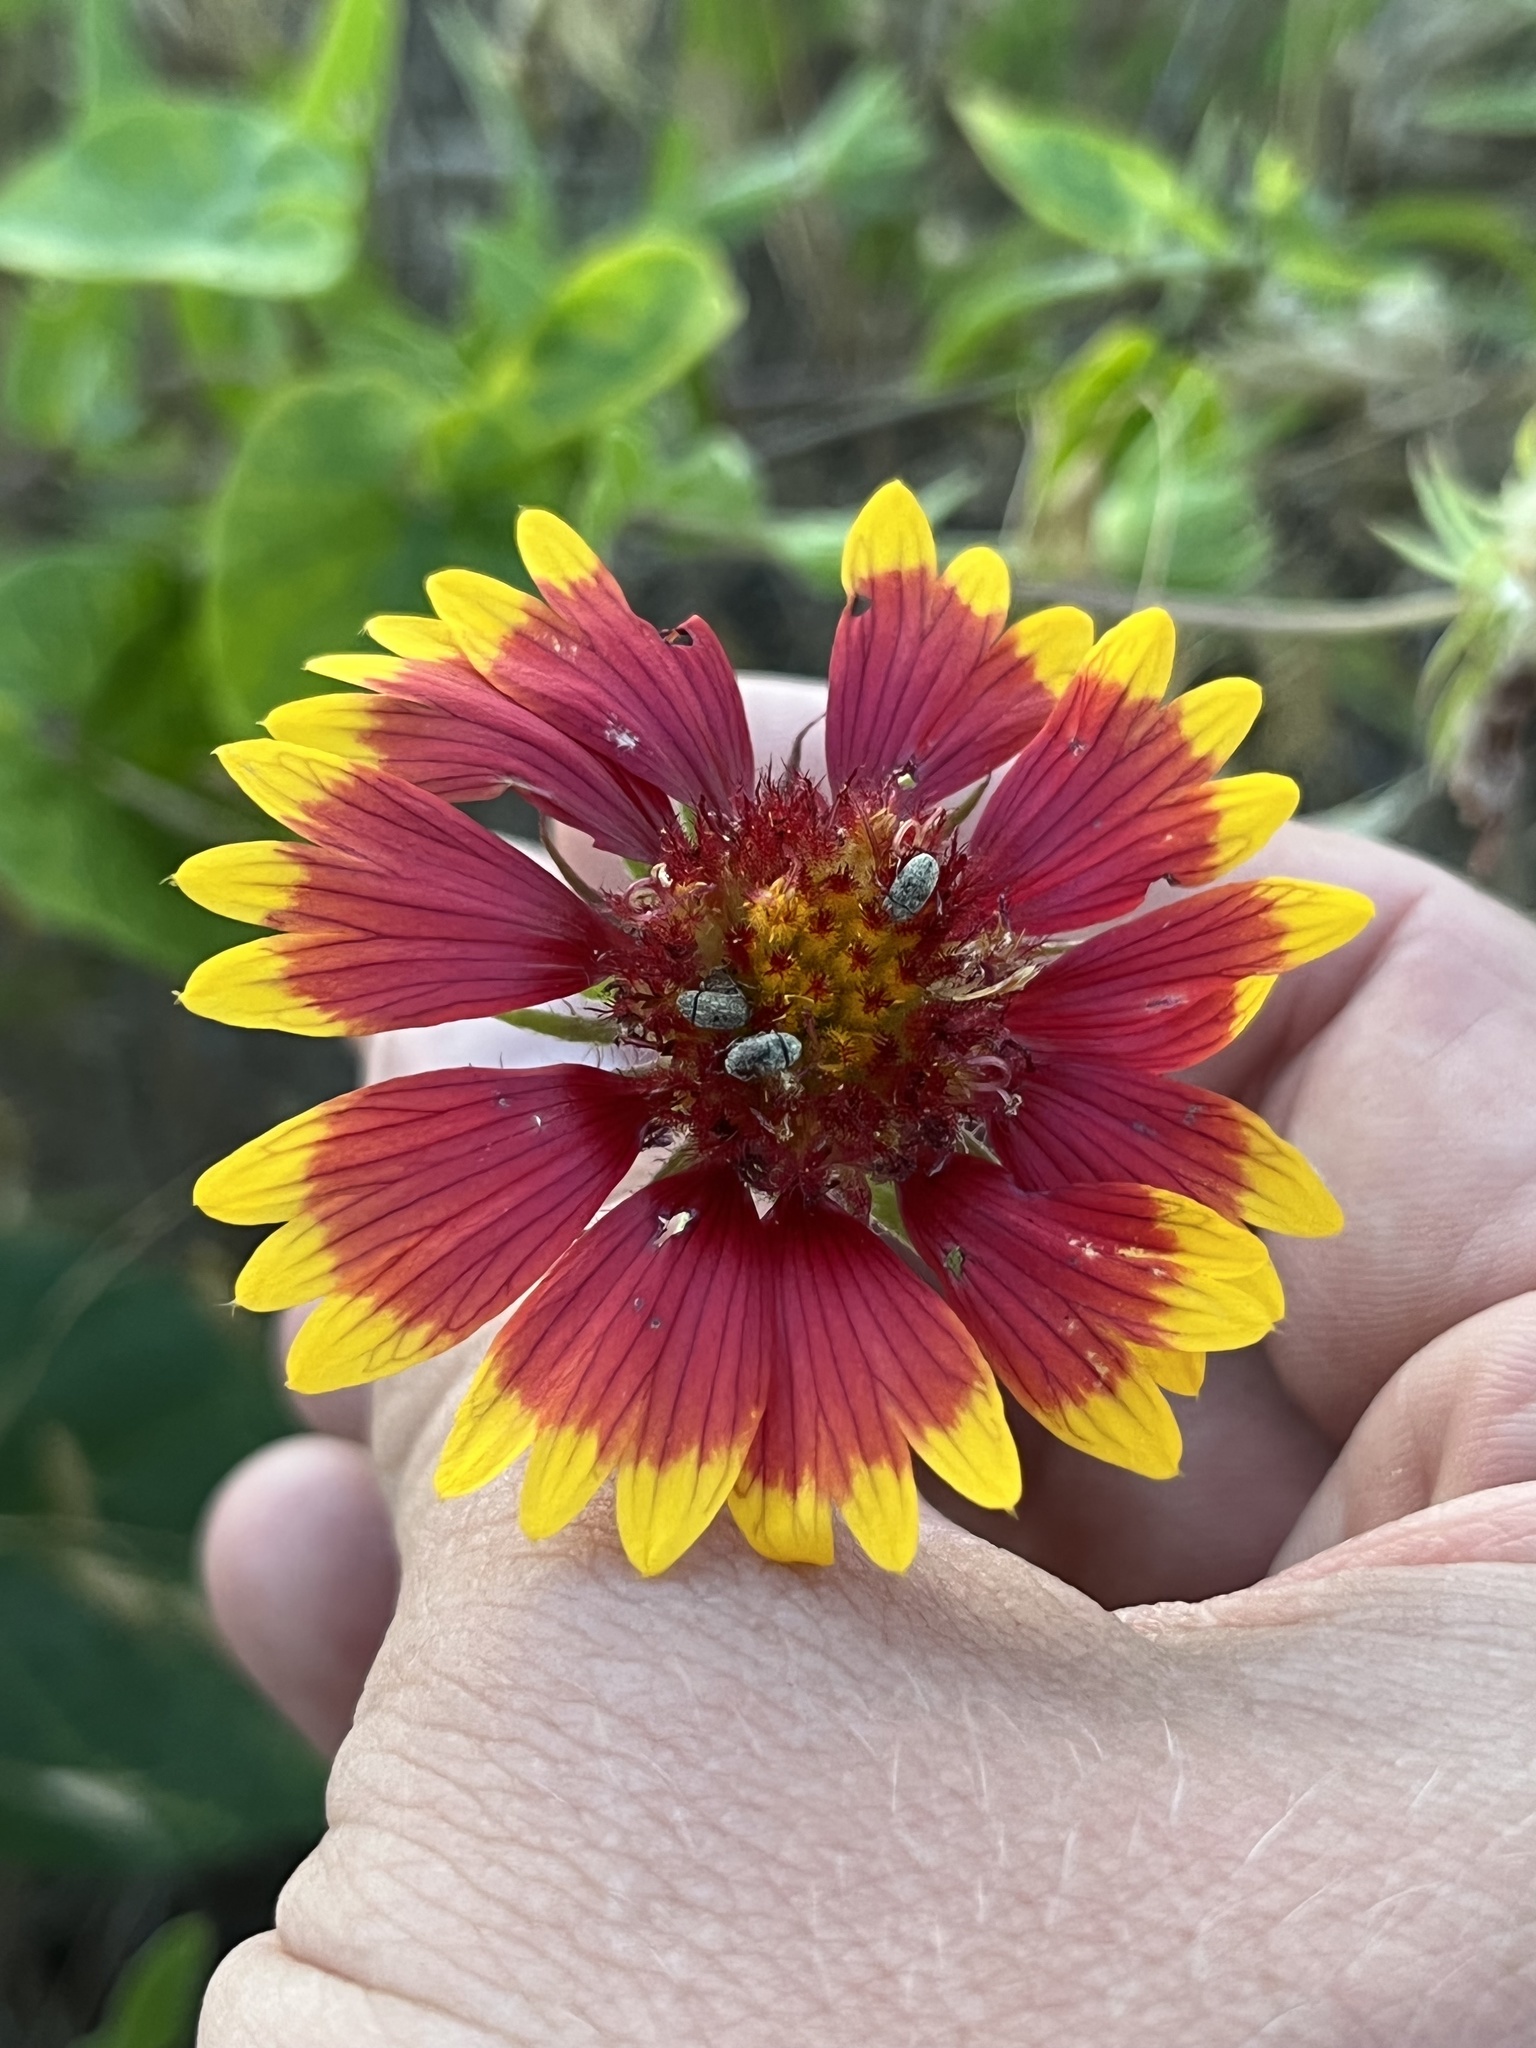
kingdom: Plantae
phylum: Tracheophyta
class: Magnoliopsida
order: Asterales
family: Asteraceae
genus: Gaillardia
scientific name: Gaillardia pulchella
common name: Firewheel
